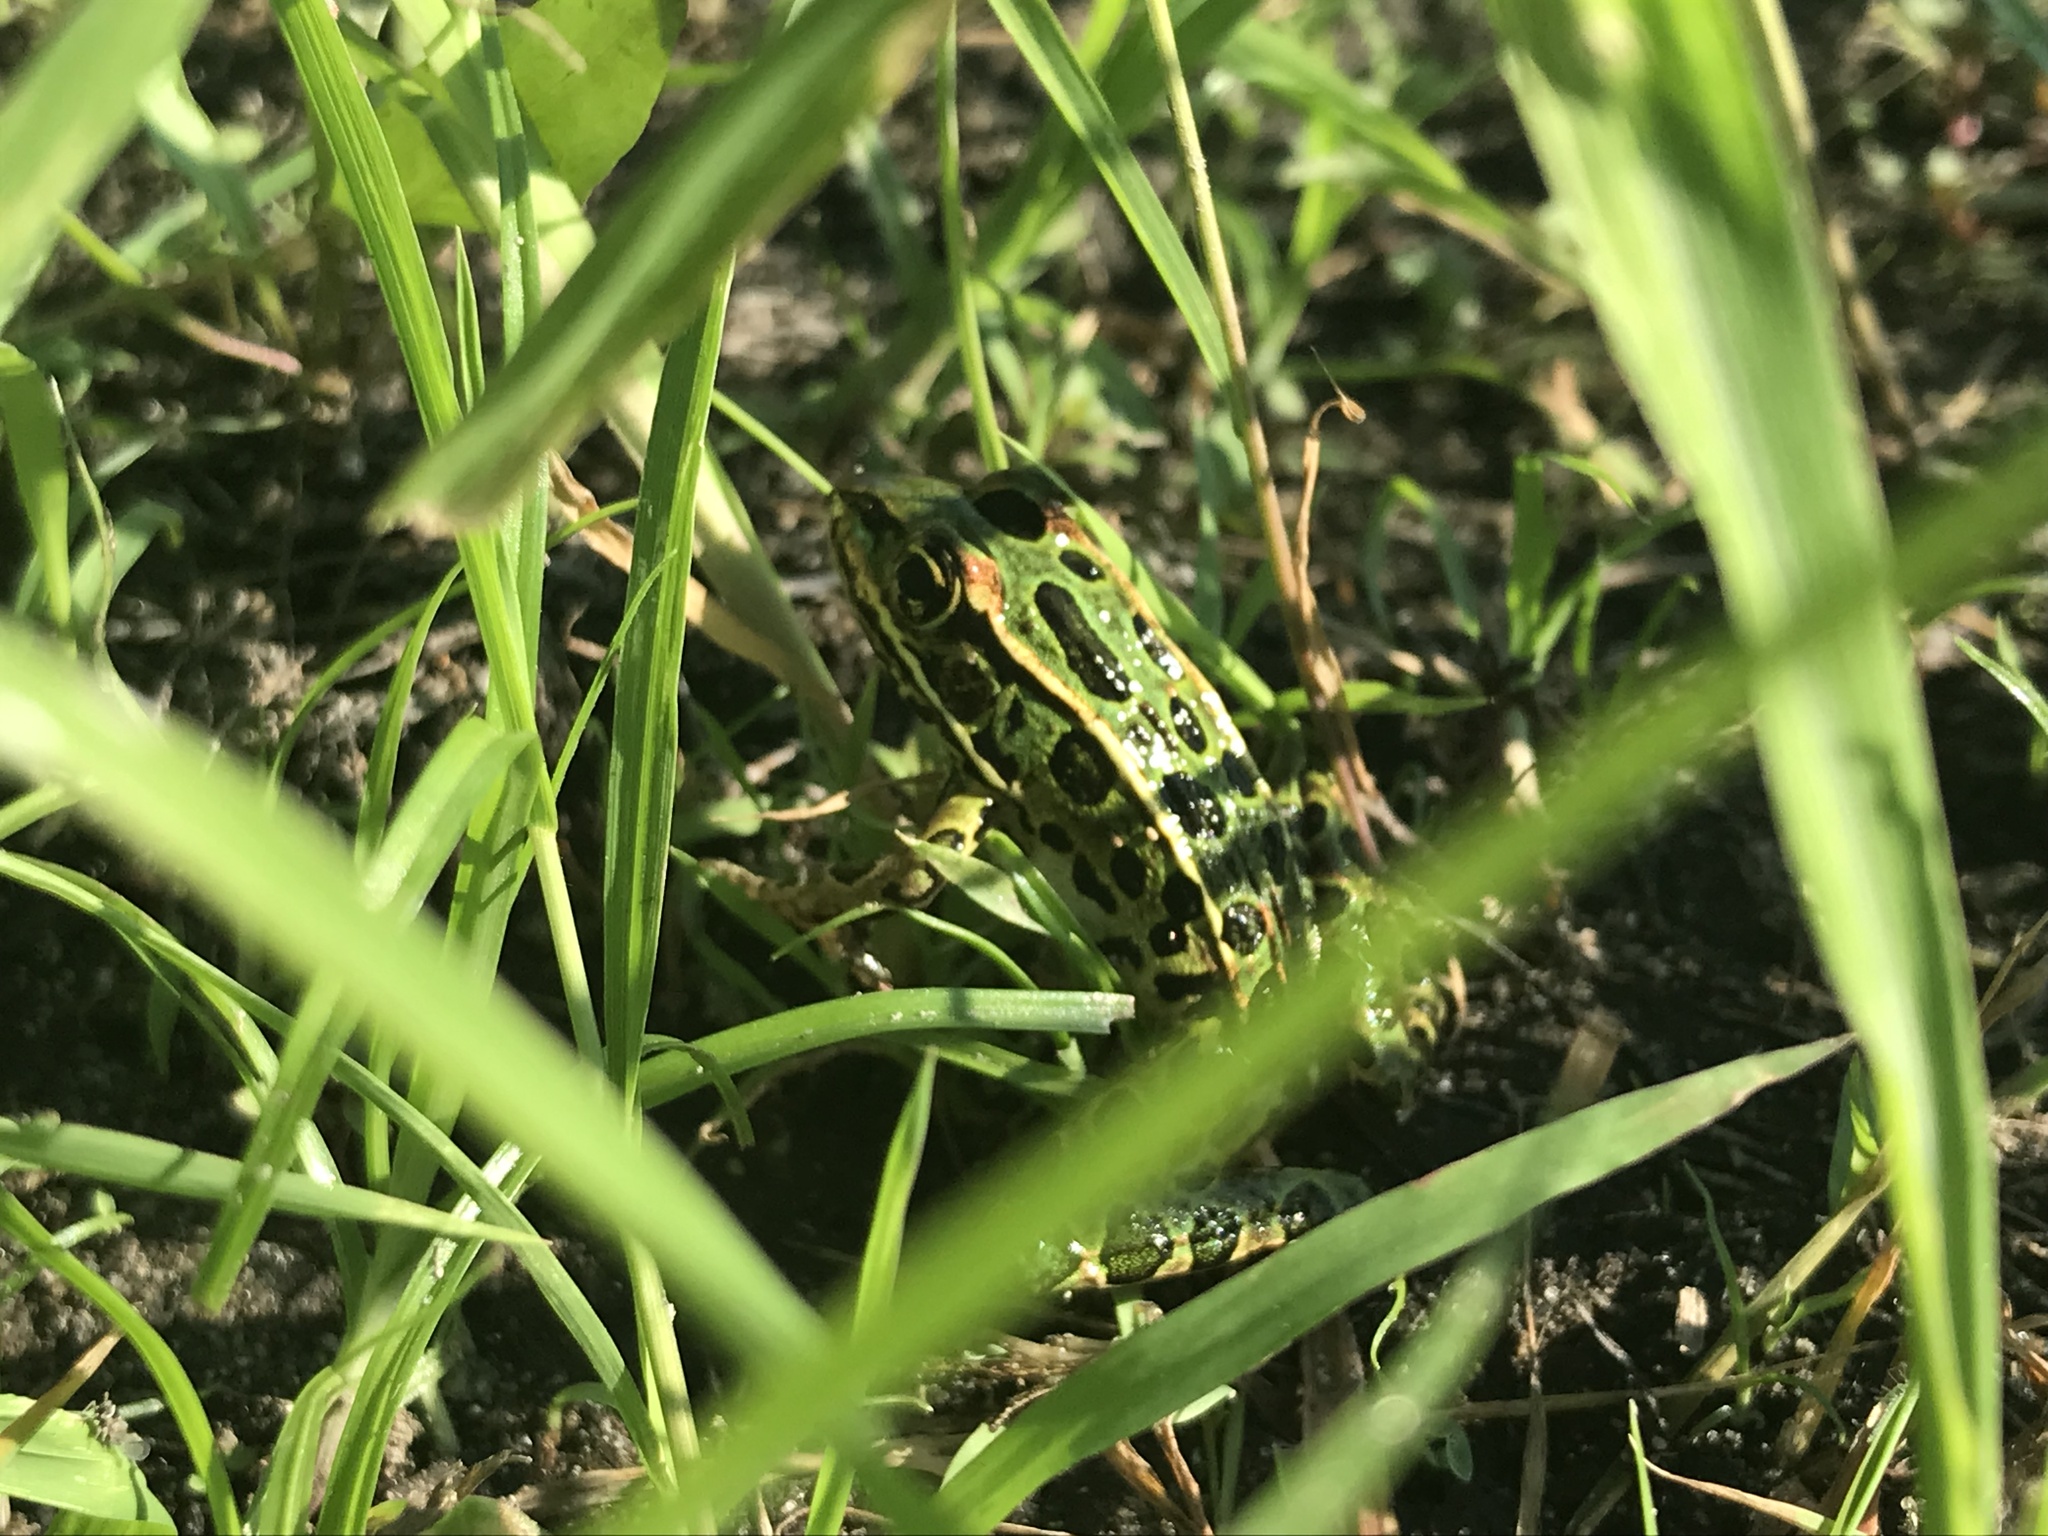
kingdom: Animalia
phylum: Chordata
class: Amphibia
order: Anura
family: Ranidae
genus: Lithobates
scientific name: Lithobates pipiens
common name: Northern leopard frog
